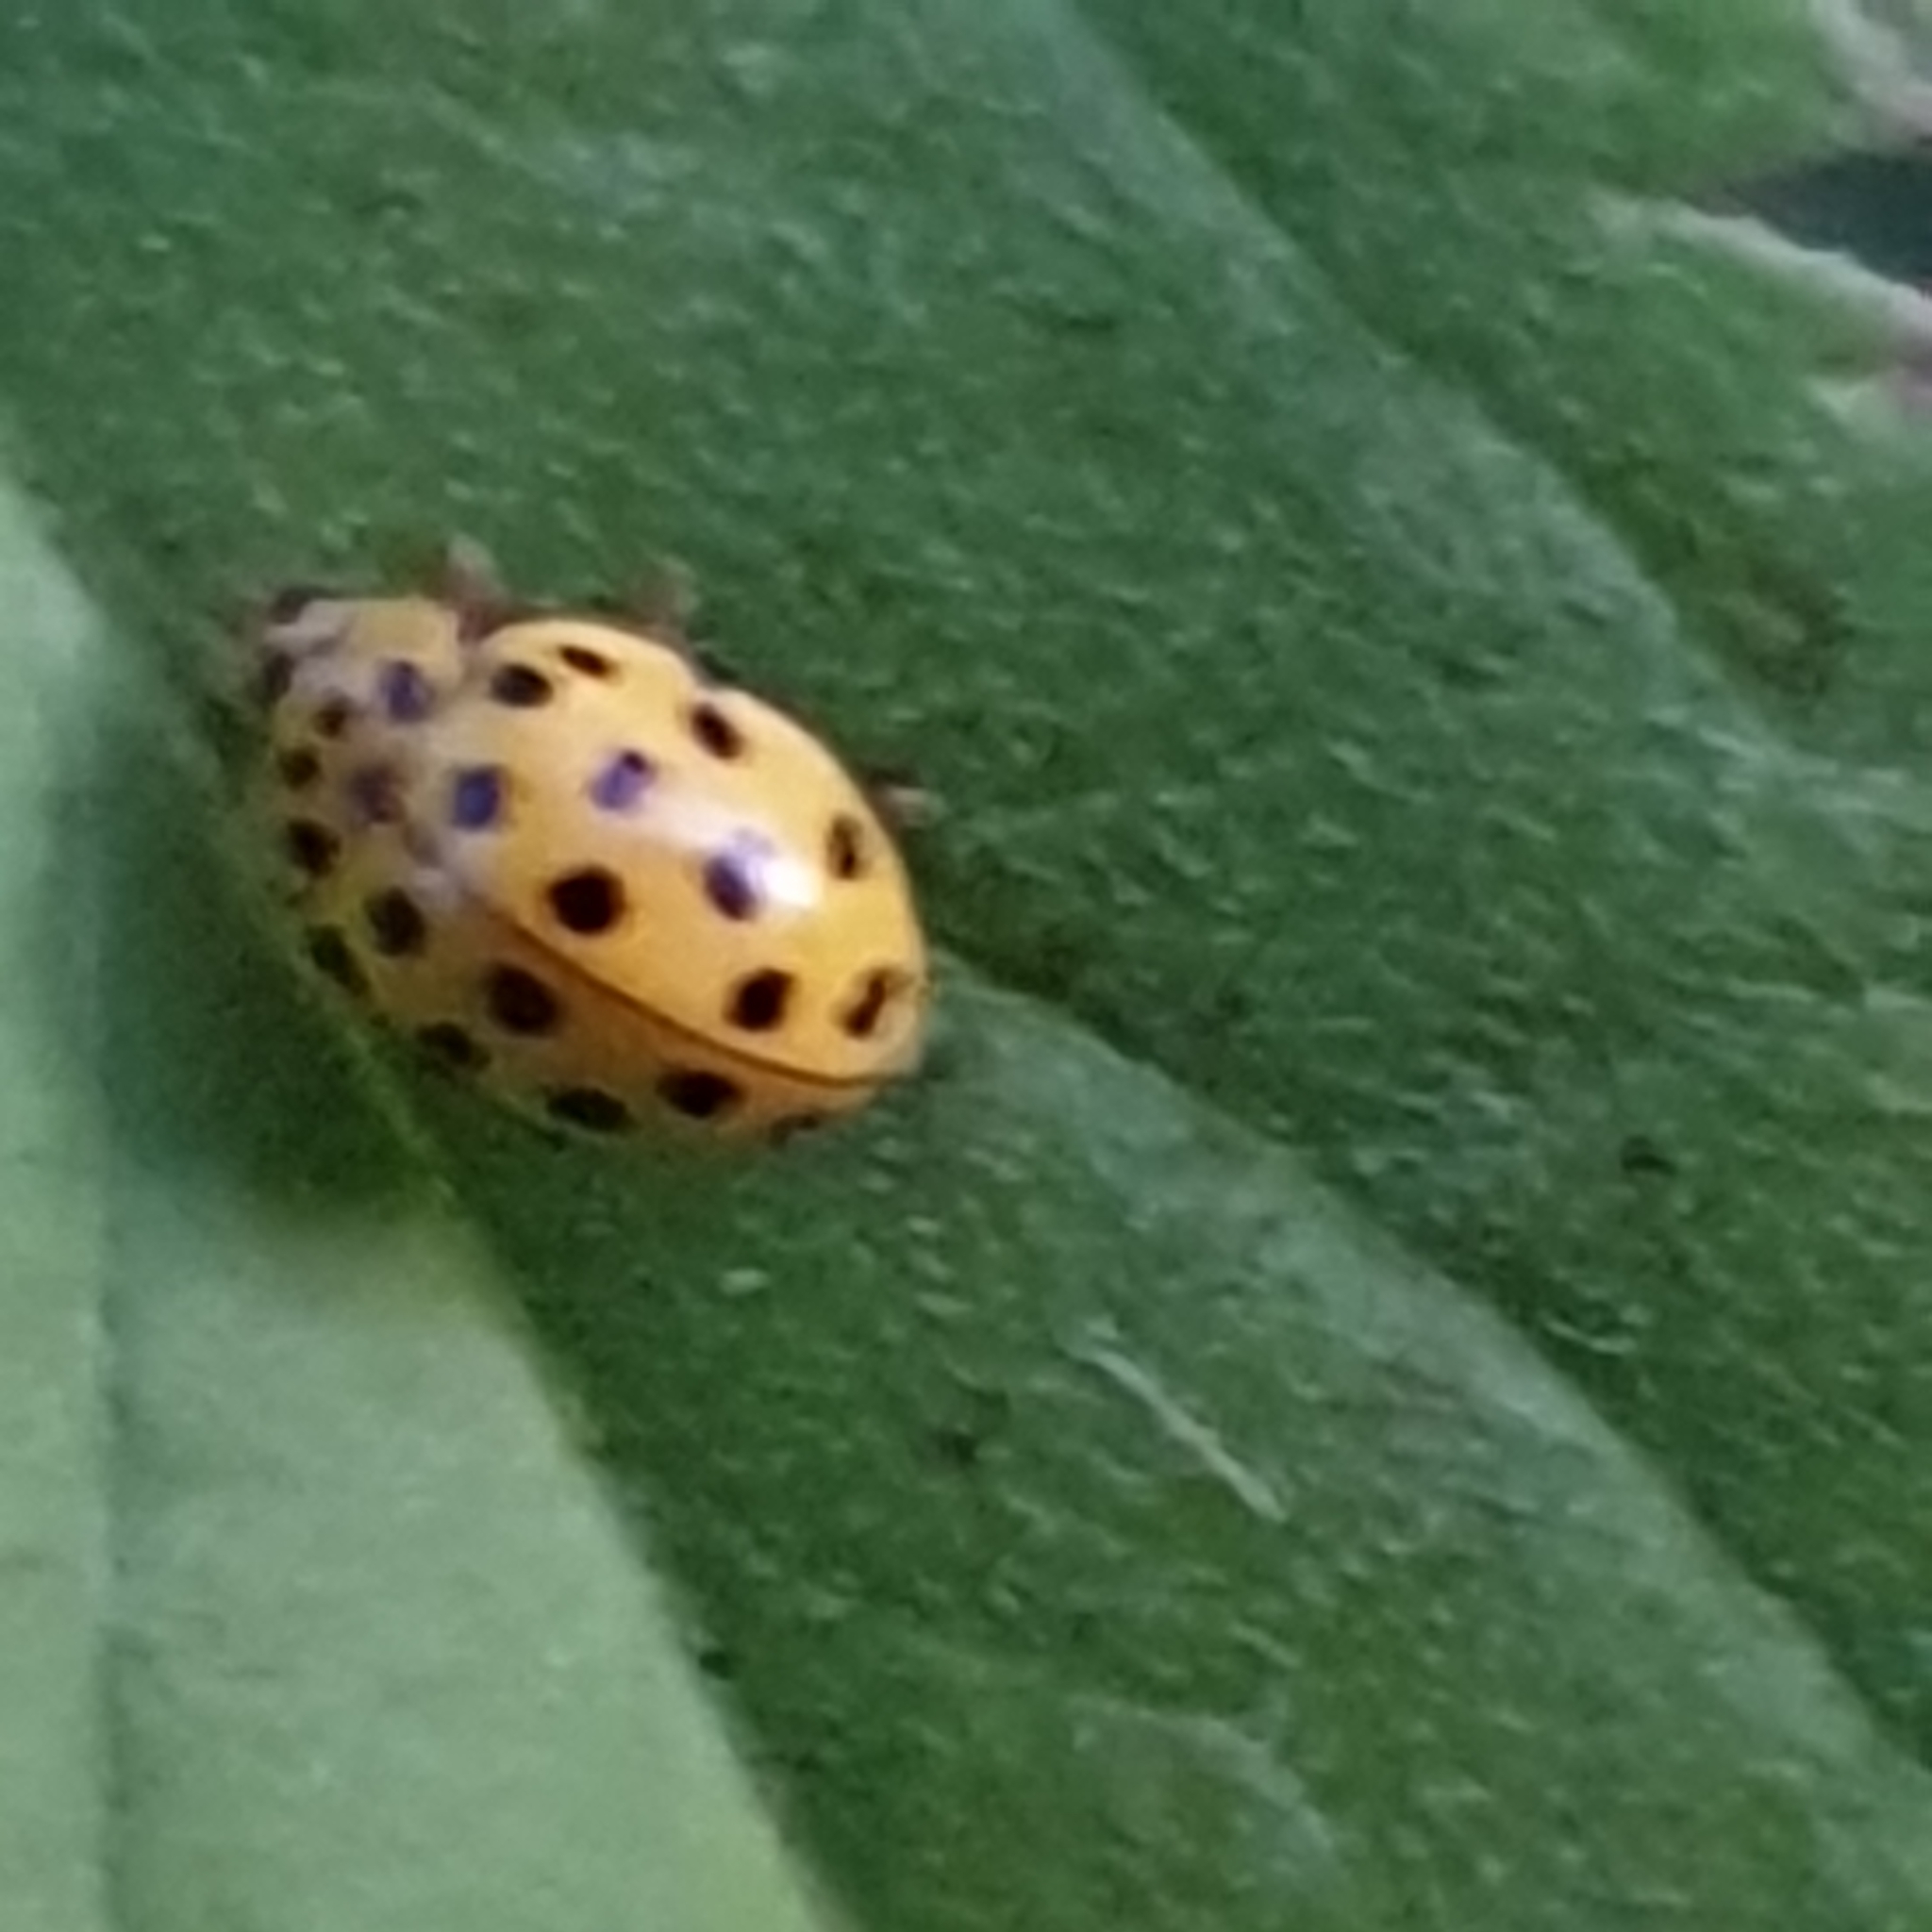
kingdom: Animalia
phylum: Arthropoda
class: Insecta
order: Coleoptera
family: Coccinellidae
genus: Psyllobora
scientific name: Psyllobora vigintiduopunctata
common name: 22-spot ladybird
